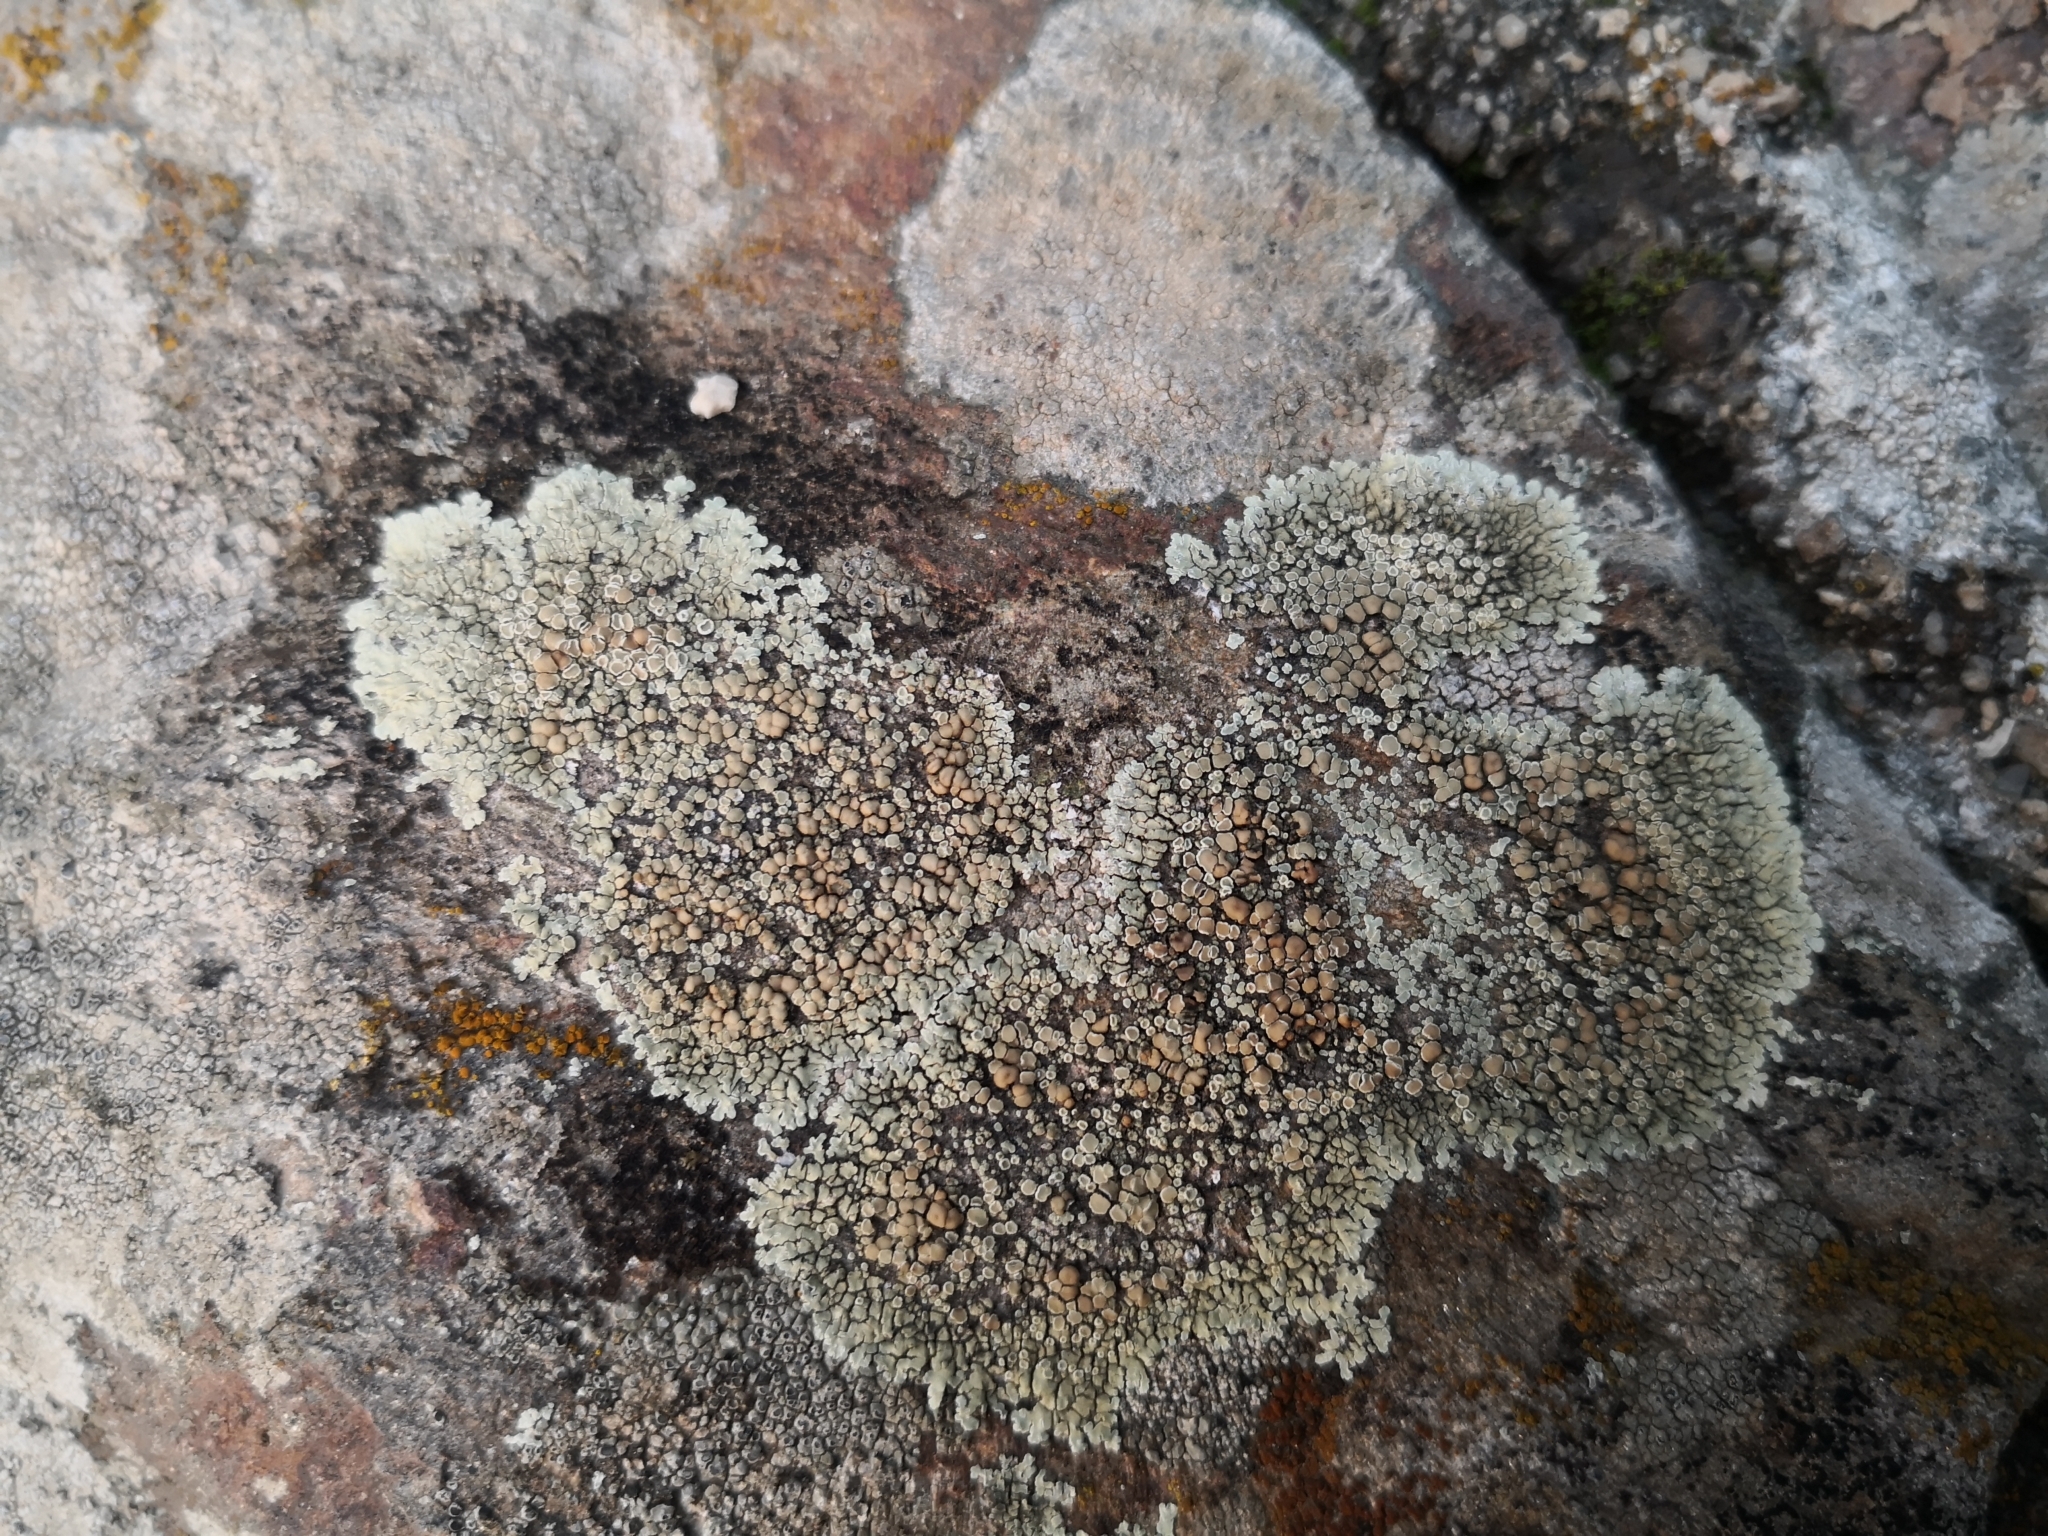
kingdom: Fungi
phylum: Ascomycota
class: Lecanoromycetes
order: Lecanorales
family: Lecanoraceae
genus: Protoparmeliopsis
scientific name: Protoparmeliopsis muralis
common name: Stonewall rim lichen
